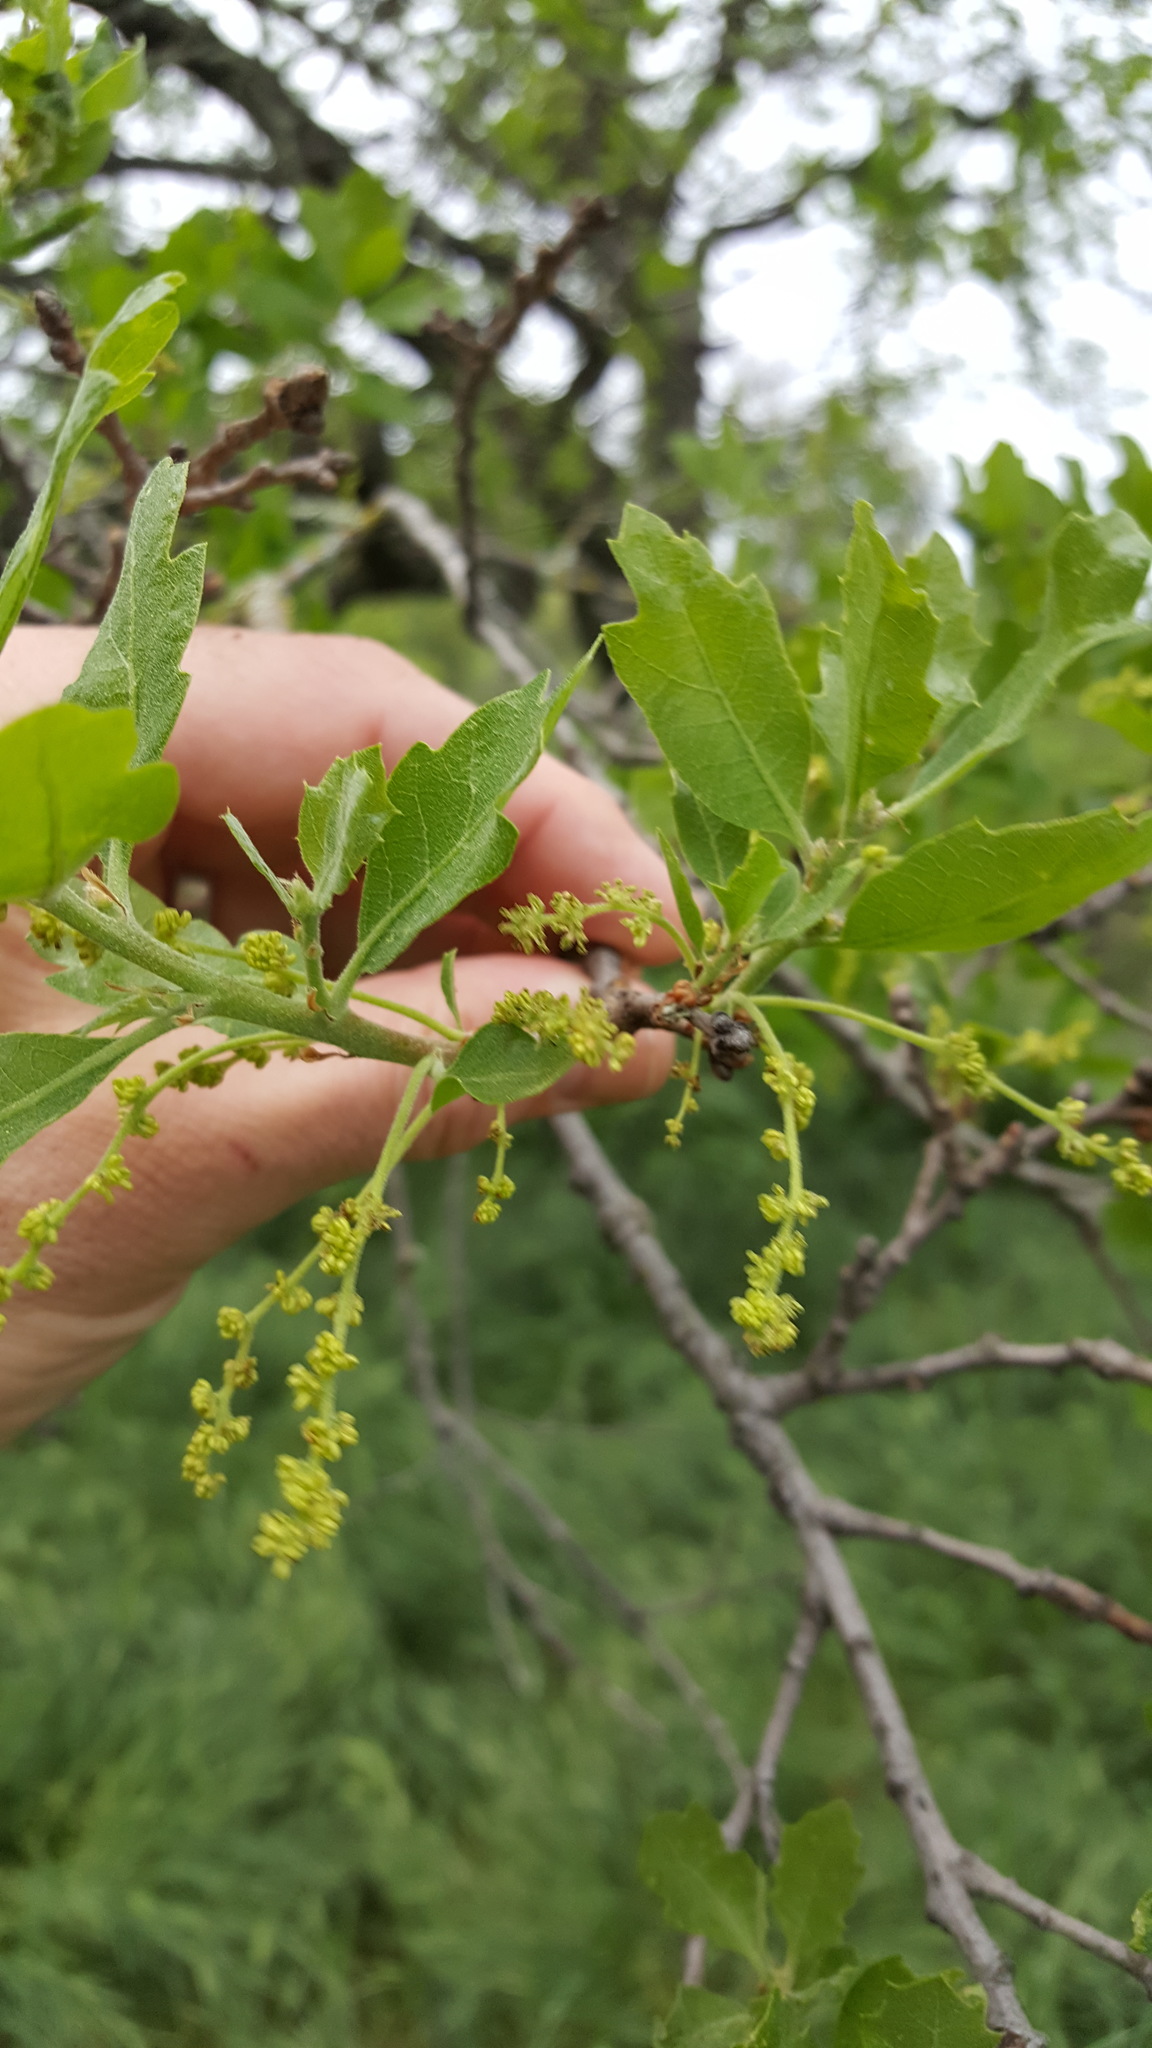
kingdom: Plantae
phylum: Tracheophyta
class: Magnoliopsida
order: Fagales
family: Fagaceae
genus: Quercus
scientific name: Quercus lobata
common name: Valley oak
